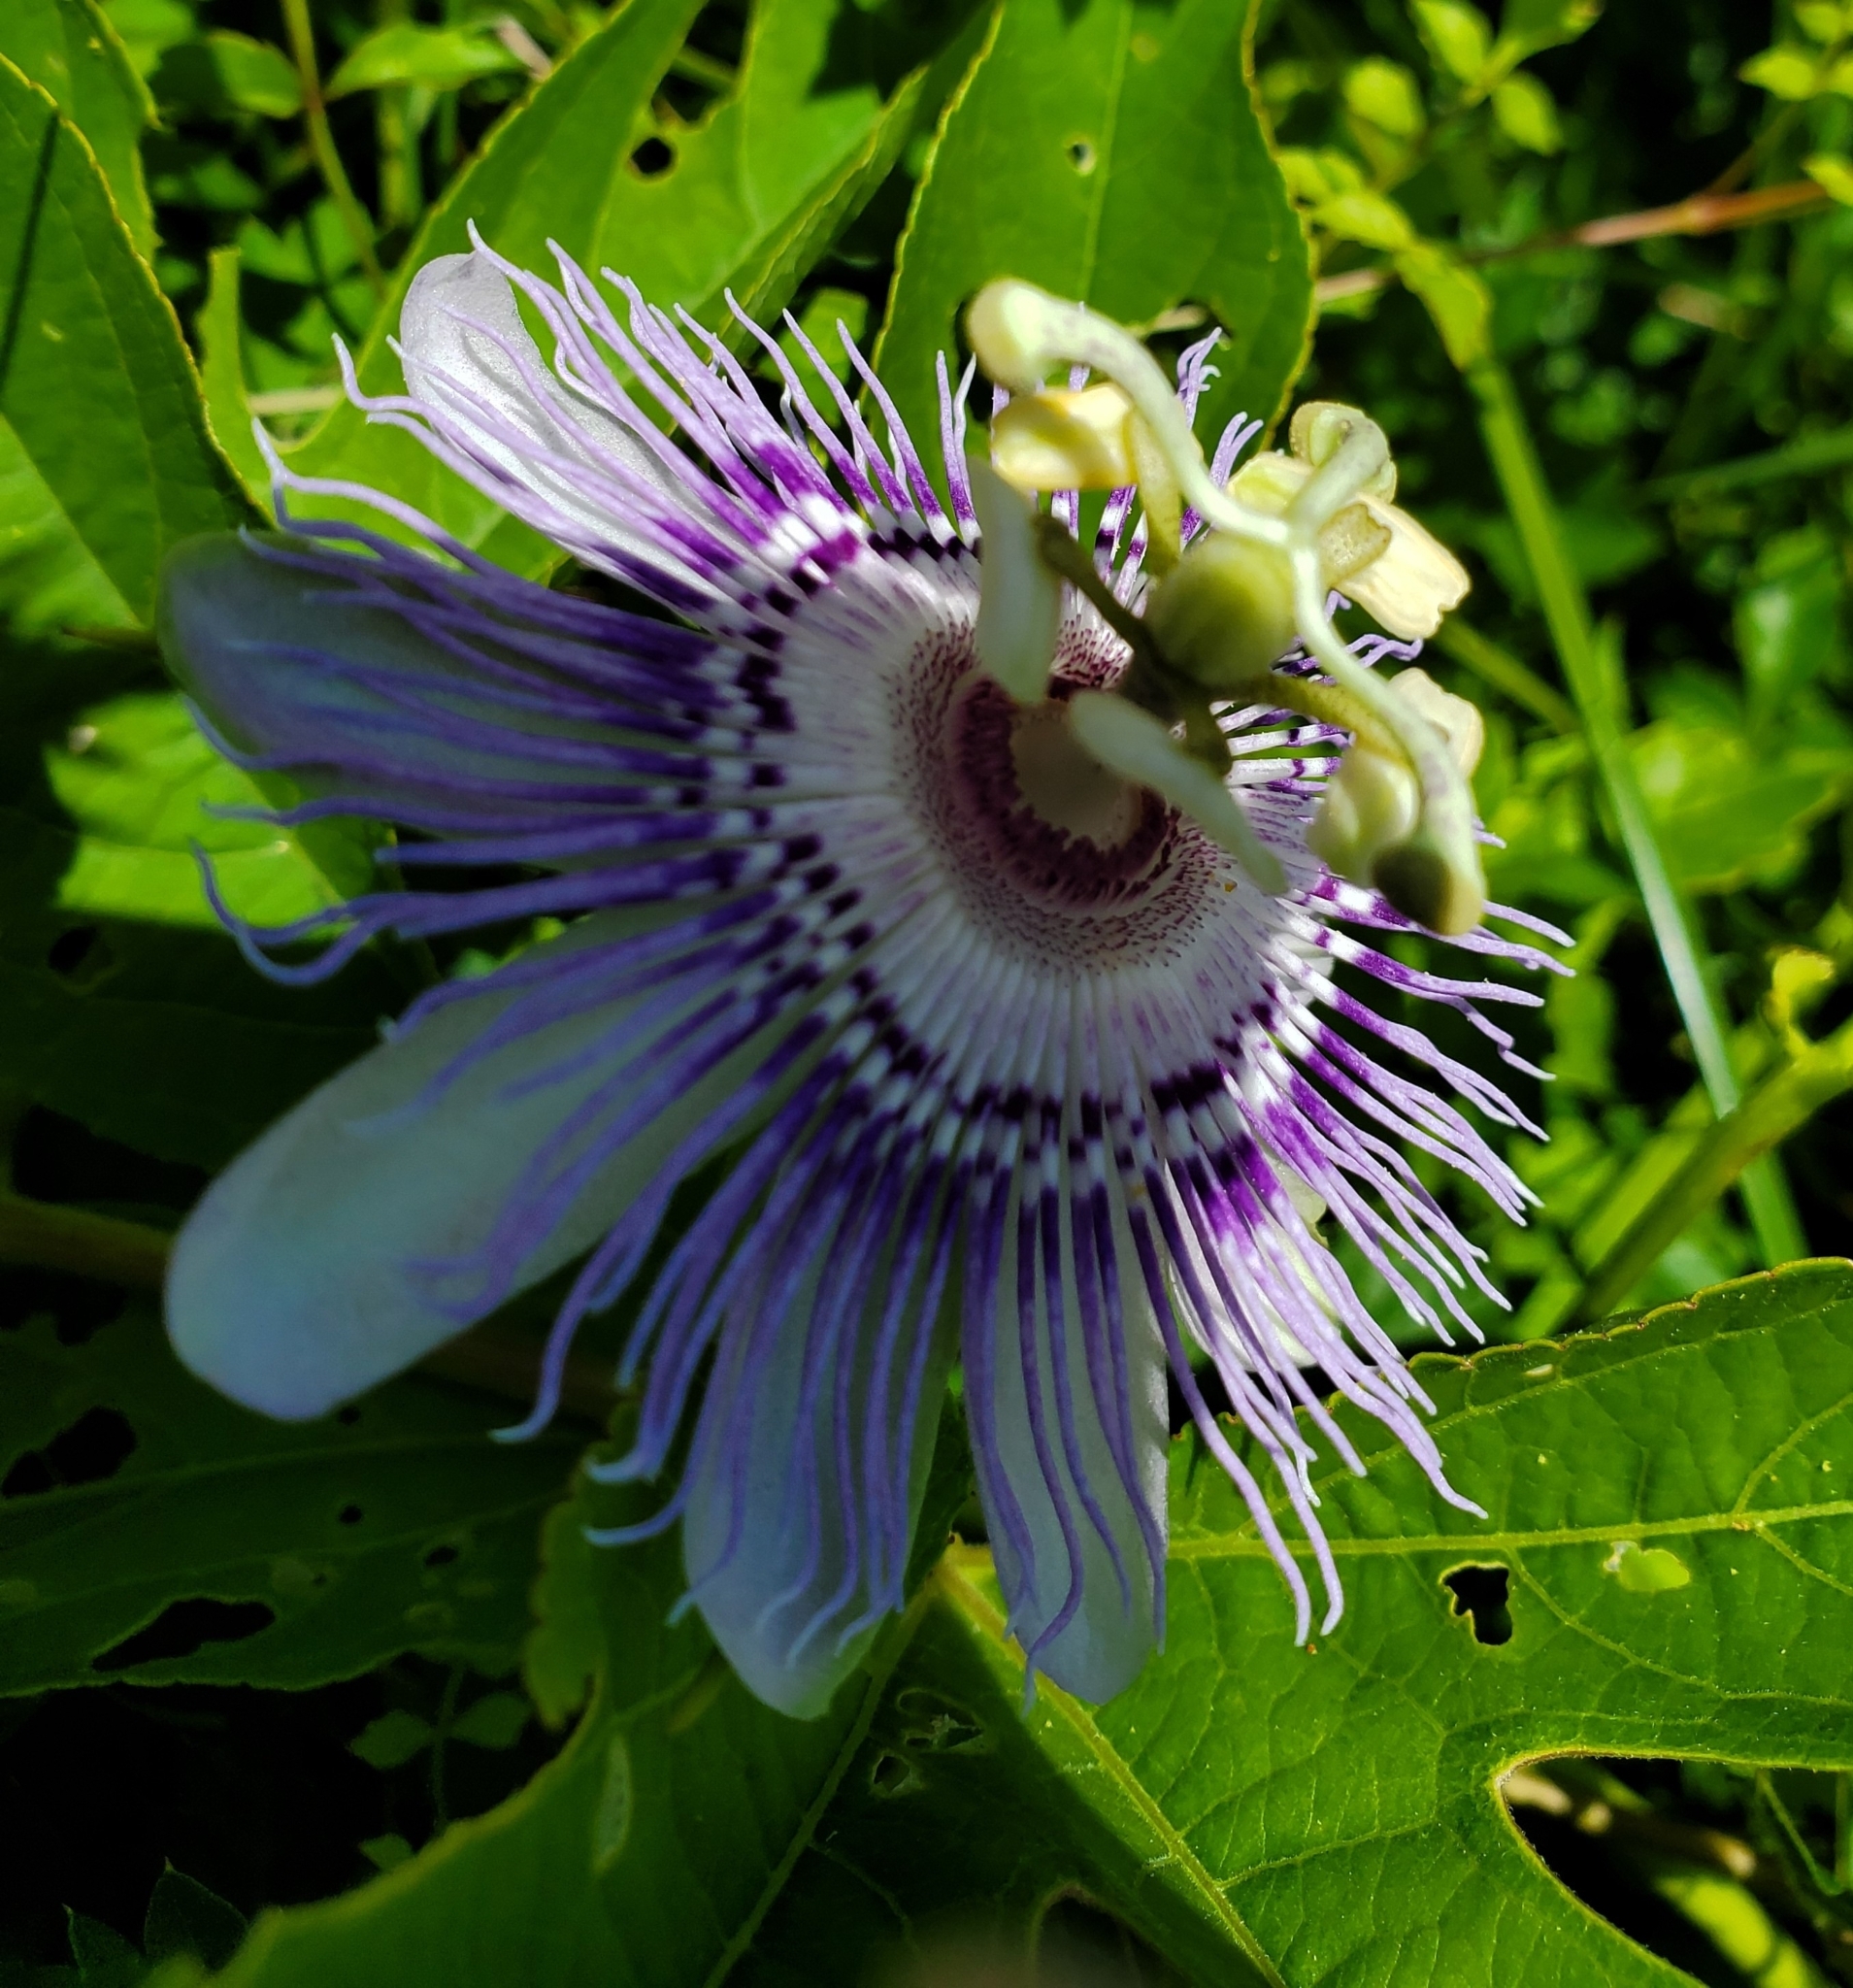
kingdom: Plantae
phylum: Tracheophyta
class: Magnoliopsida
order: Malpighiales
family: Passifloraceae
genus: Passiflora
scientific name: Passiflora incarnata
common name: Apricot-vine
